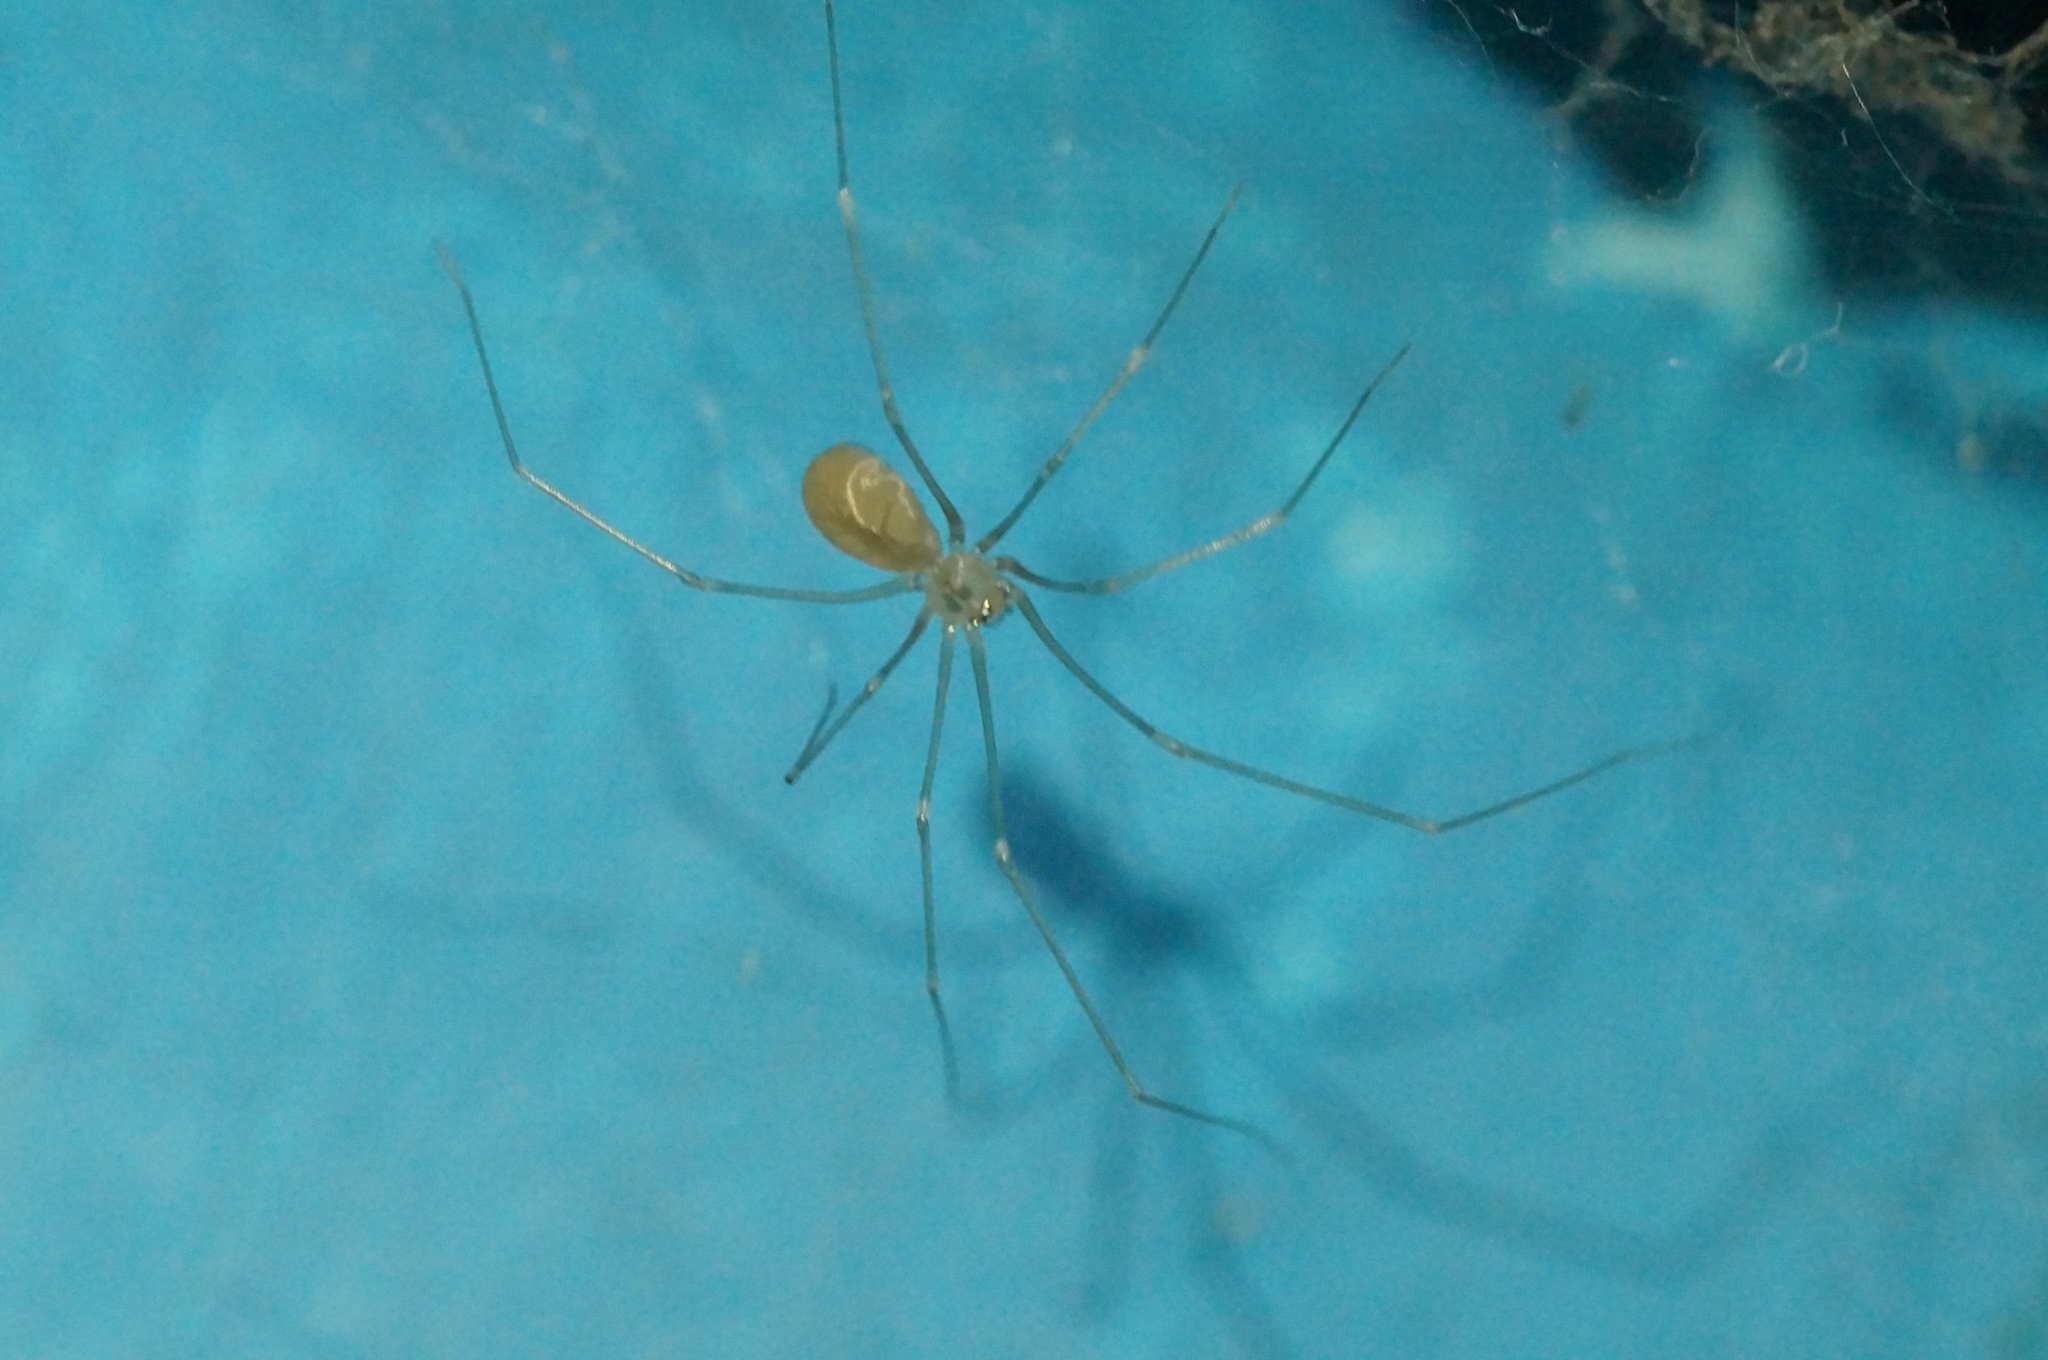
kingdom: Animalia
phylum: Arthropoda
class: Arachnida
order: Araneae
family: Pholcidae
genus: Pholcus
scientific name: Pholcus ponticus
